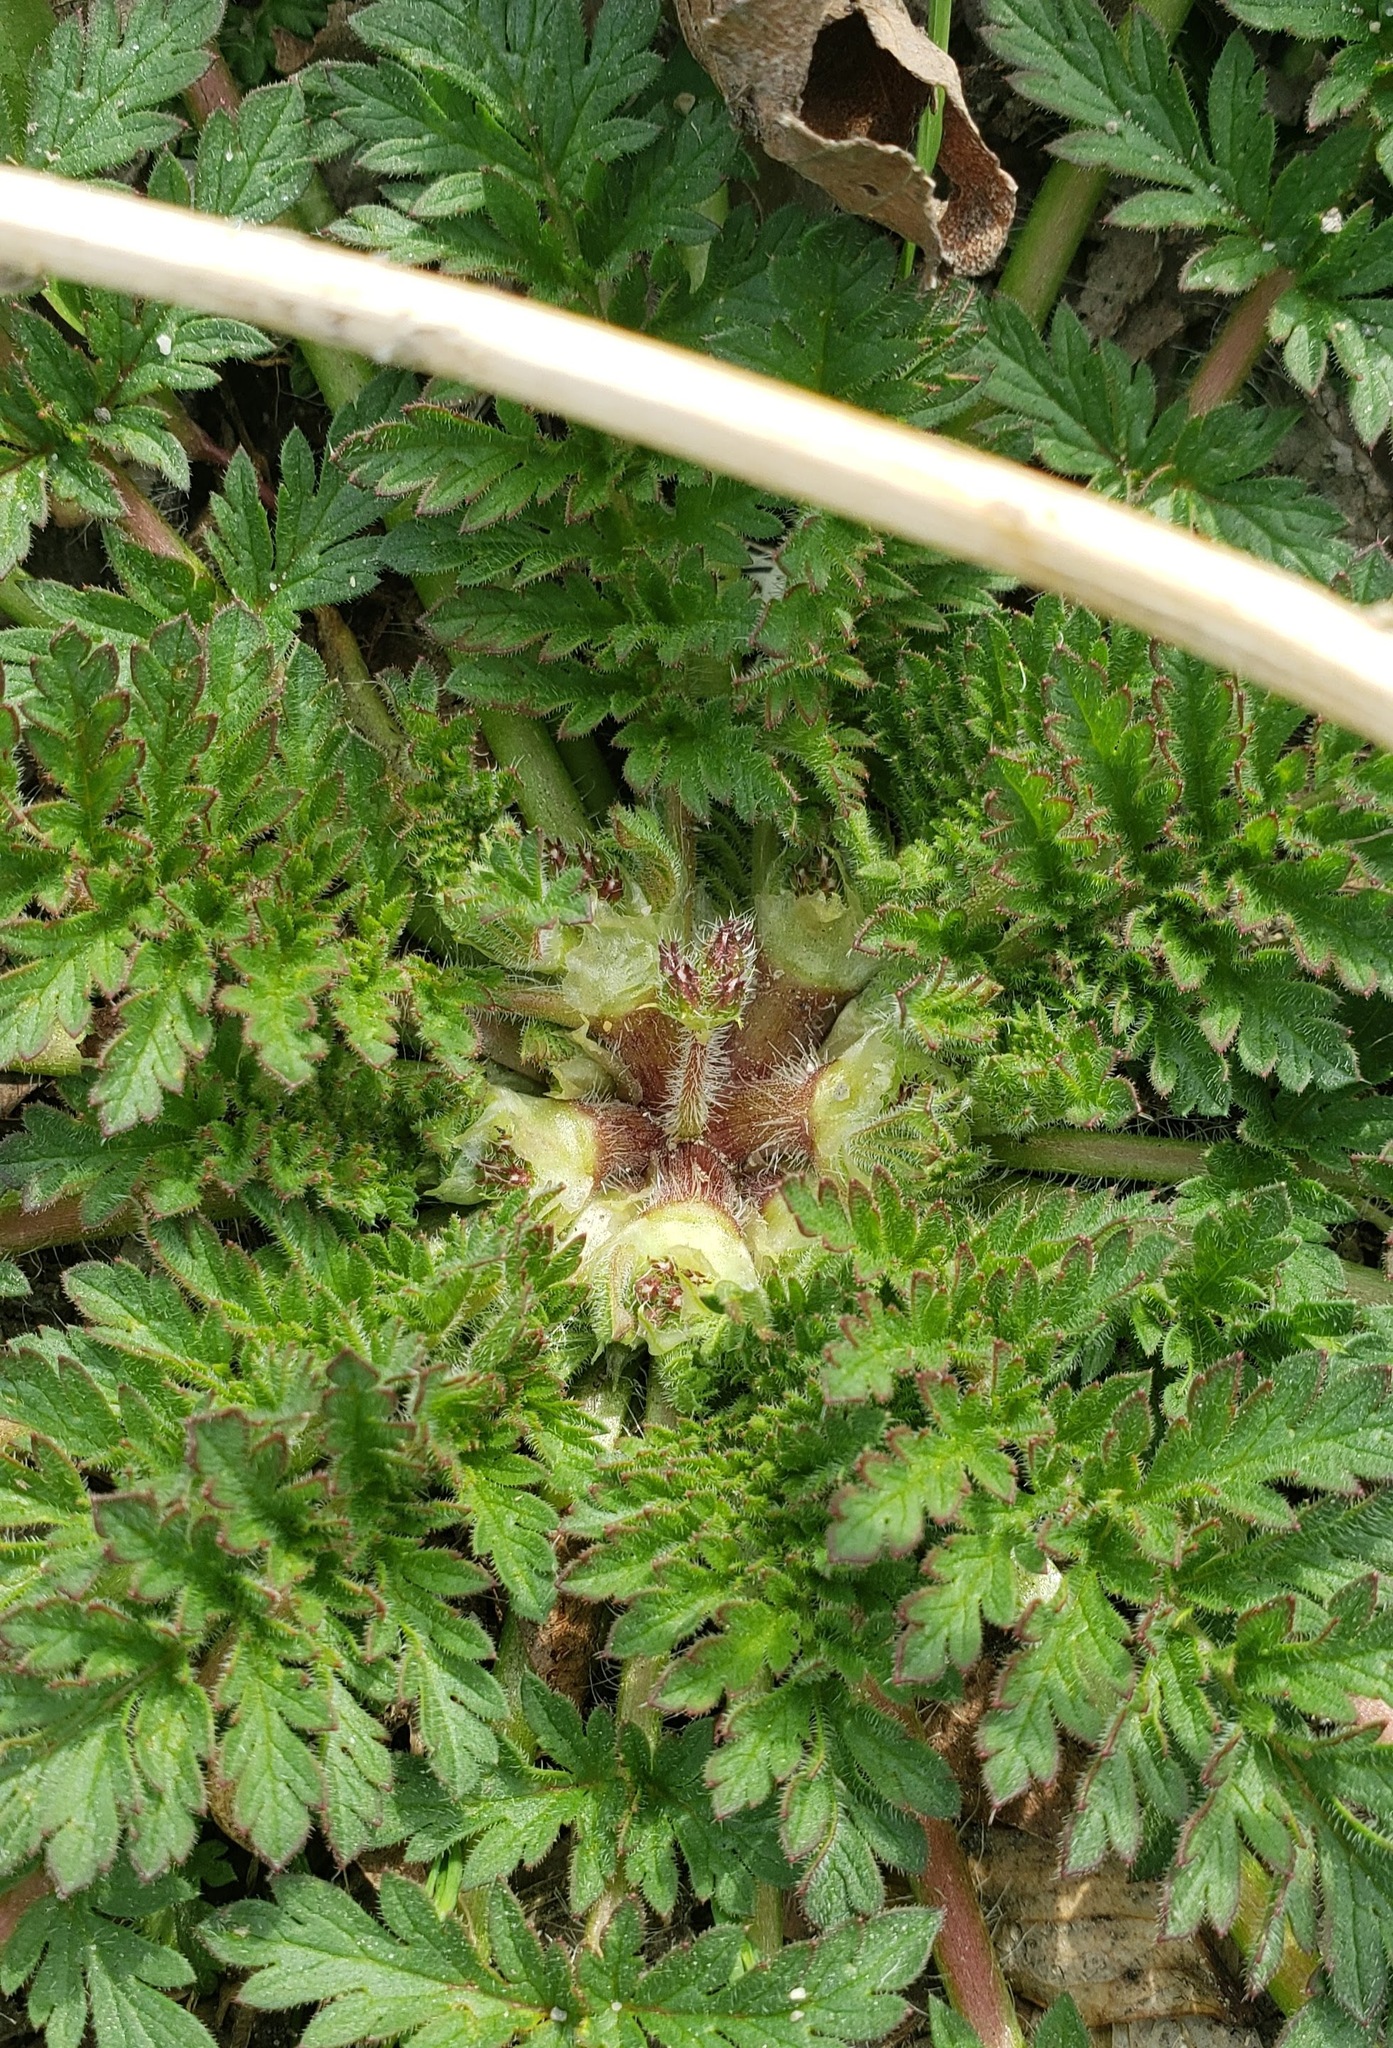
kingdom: Plantae
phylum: Tracheophyta
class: Magnoliopsida
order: Geraniales
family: Geraniaceae
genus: Erodium
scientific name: Erodium cicutarium
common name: Common stork's-bill
